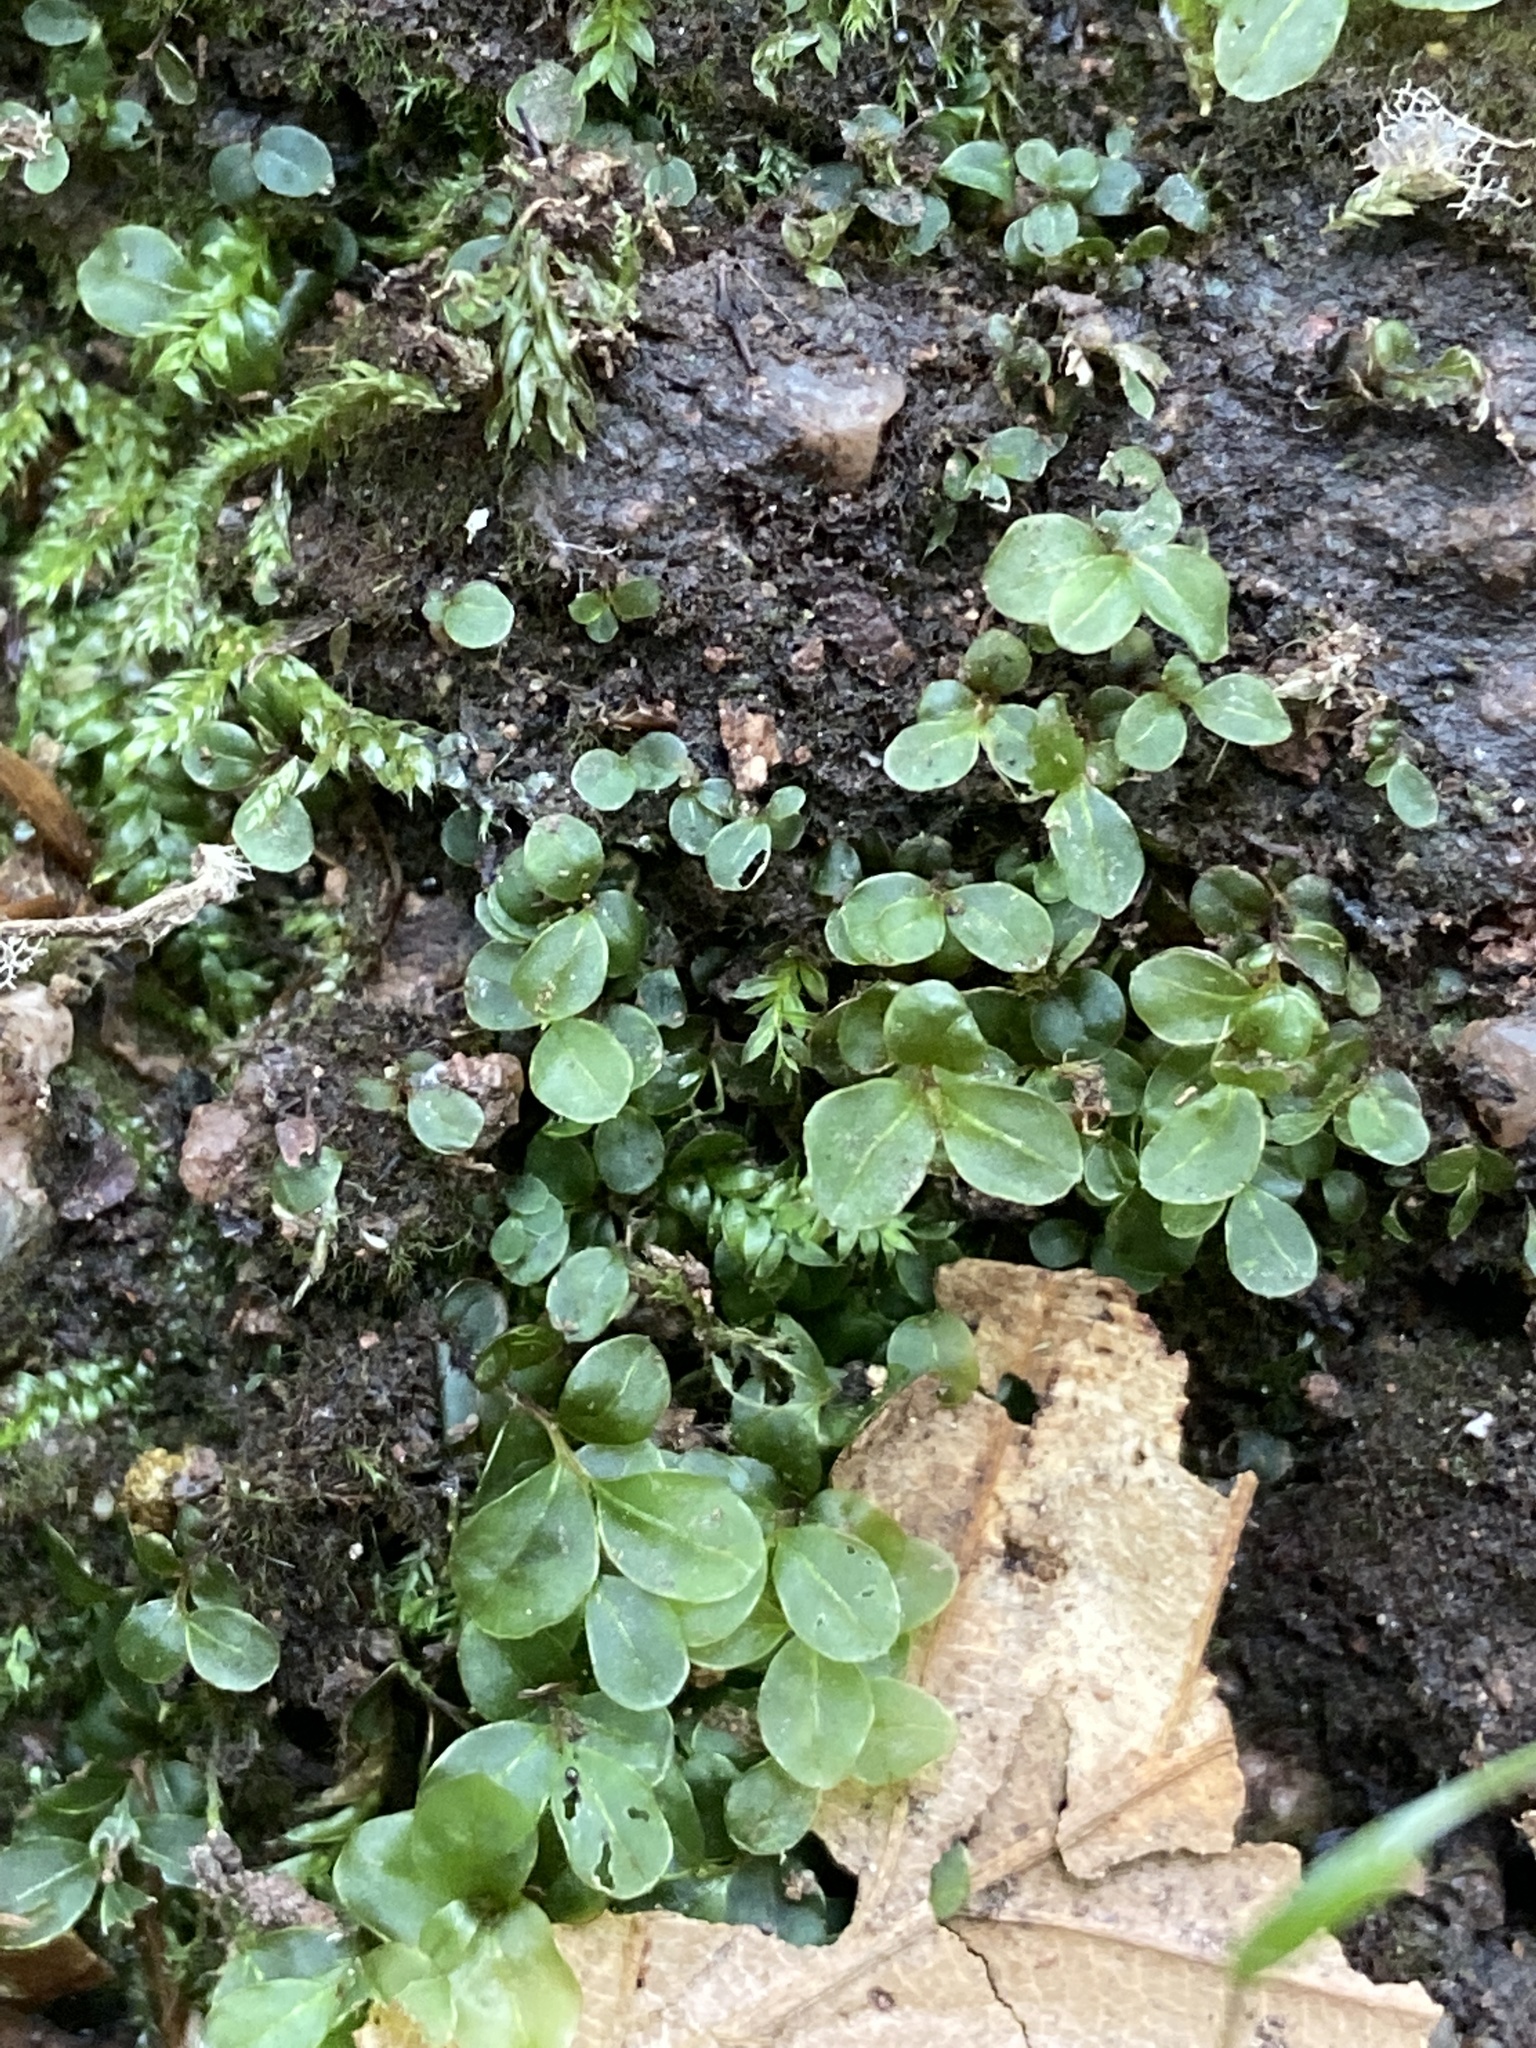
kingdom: Plantae
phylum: Bryophyta
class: Bryopsida
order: Bryales
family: Mniaceae
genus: Rhizomnium
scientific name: Rhizomnium punctatum
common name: Dotted leafy moss
